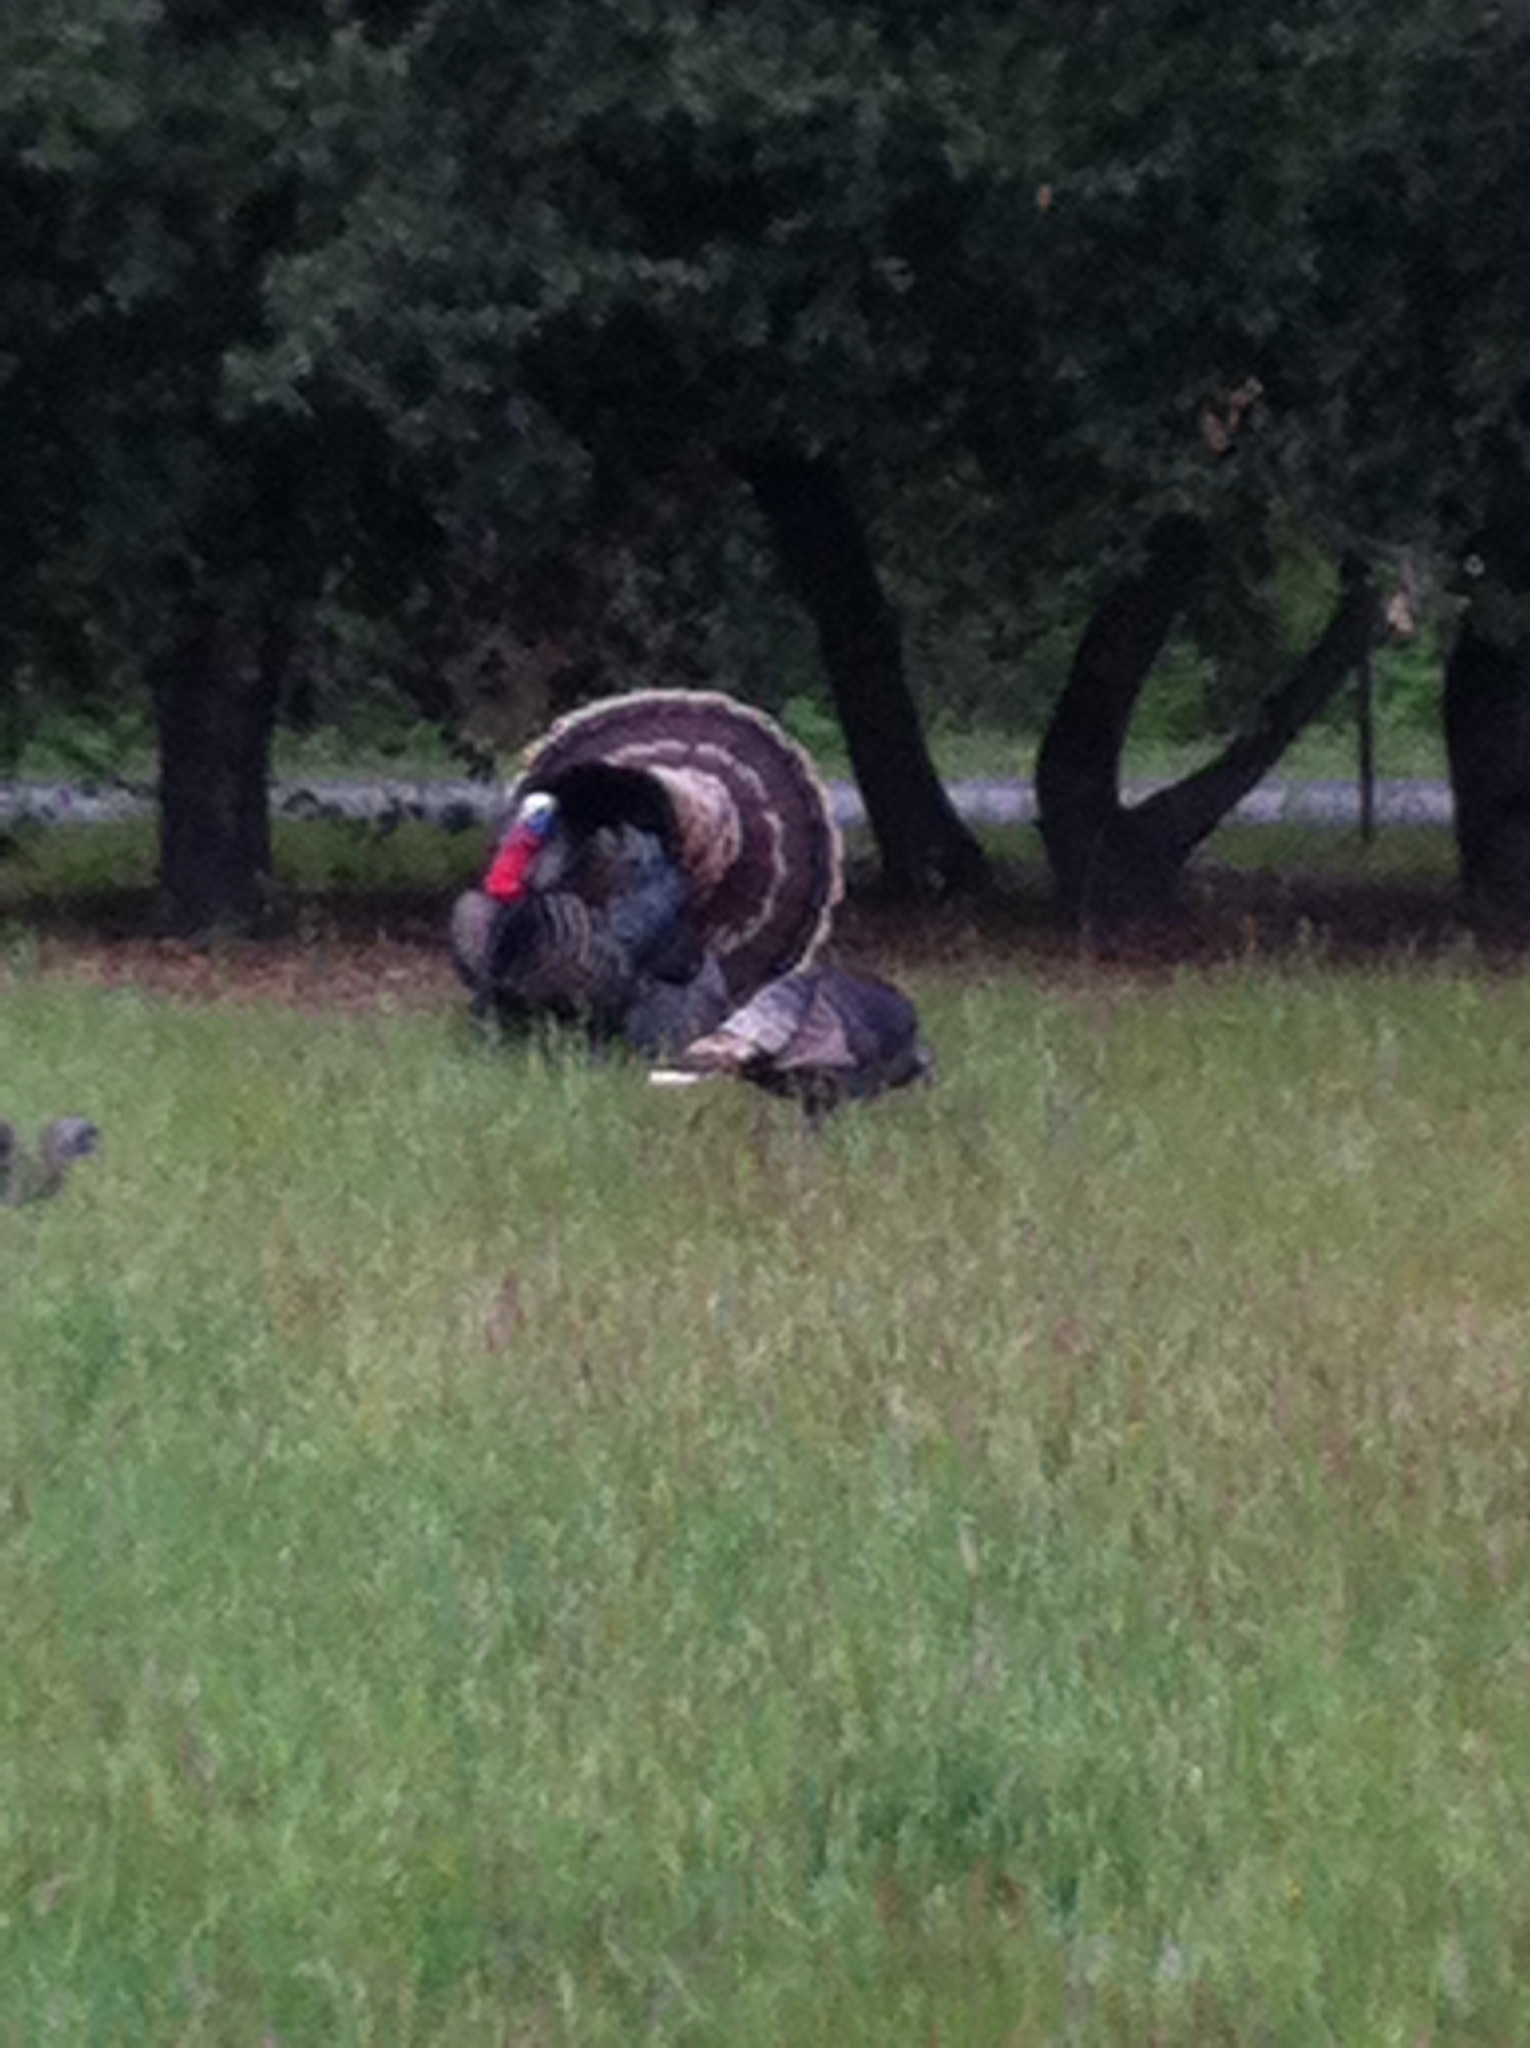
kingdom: Animalia
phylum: Chordata
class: Aves
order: Galliformes
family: Phasianidae
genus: Meleagris
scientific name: Meleagris gallopavo
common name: Wild turkey
